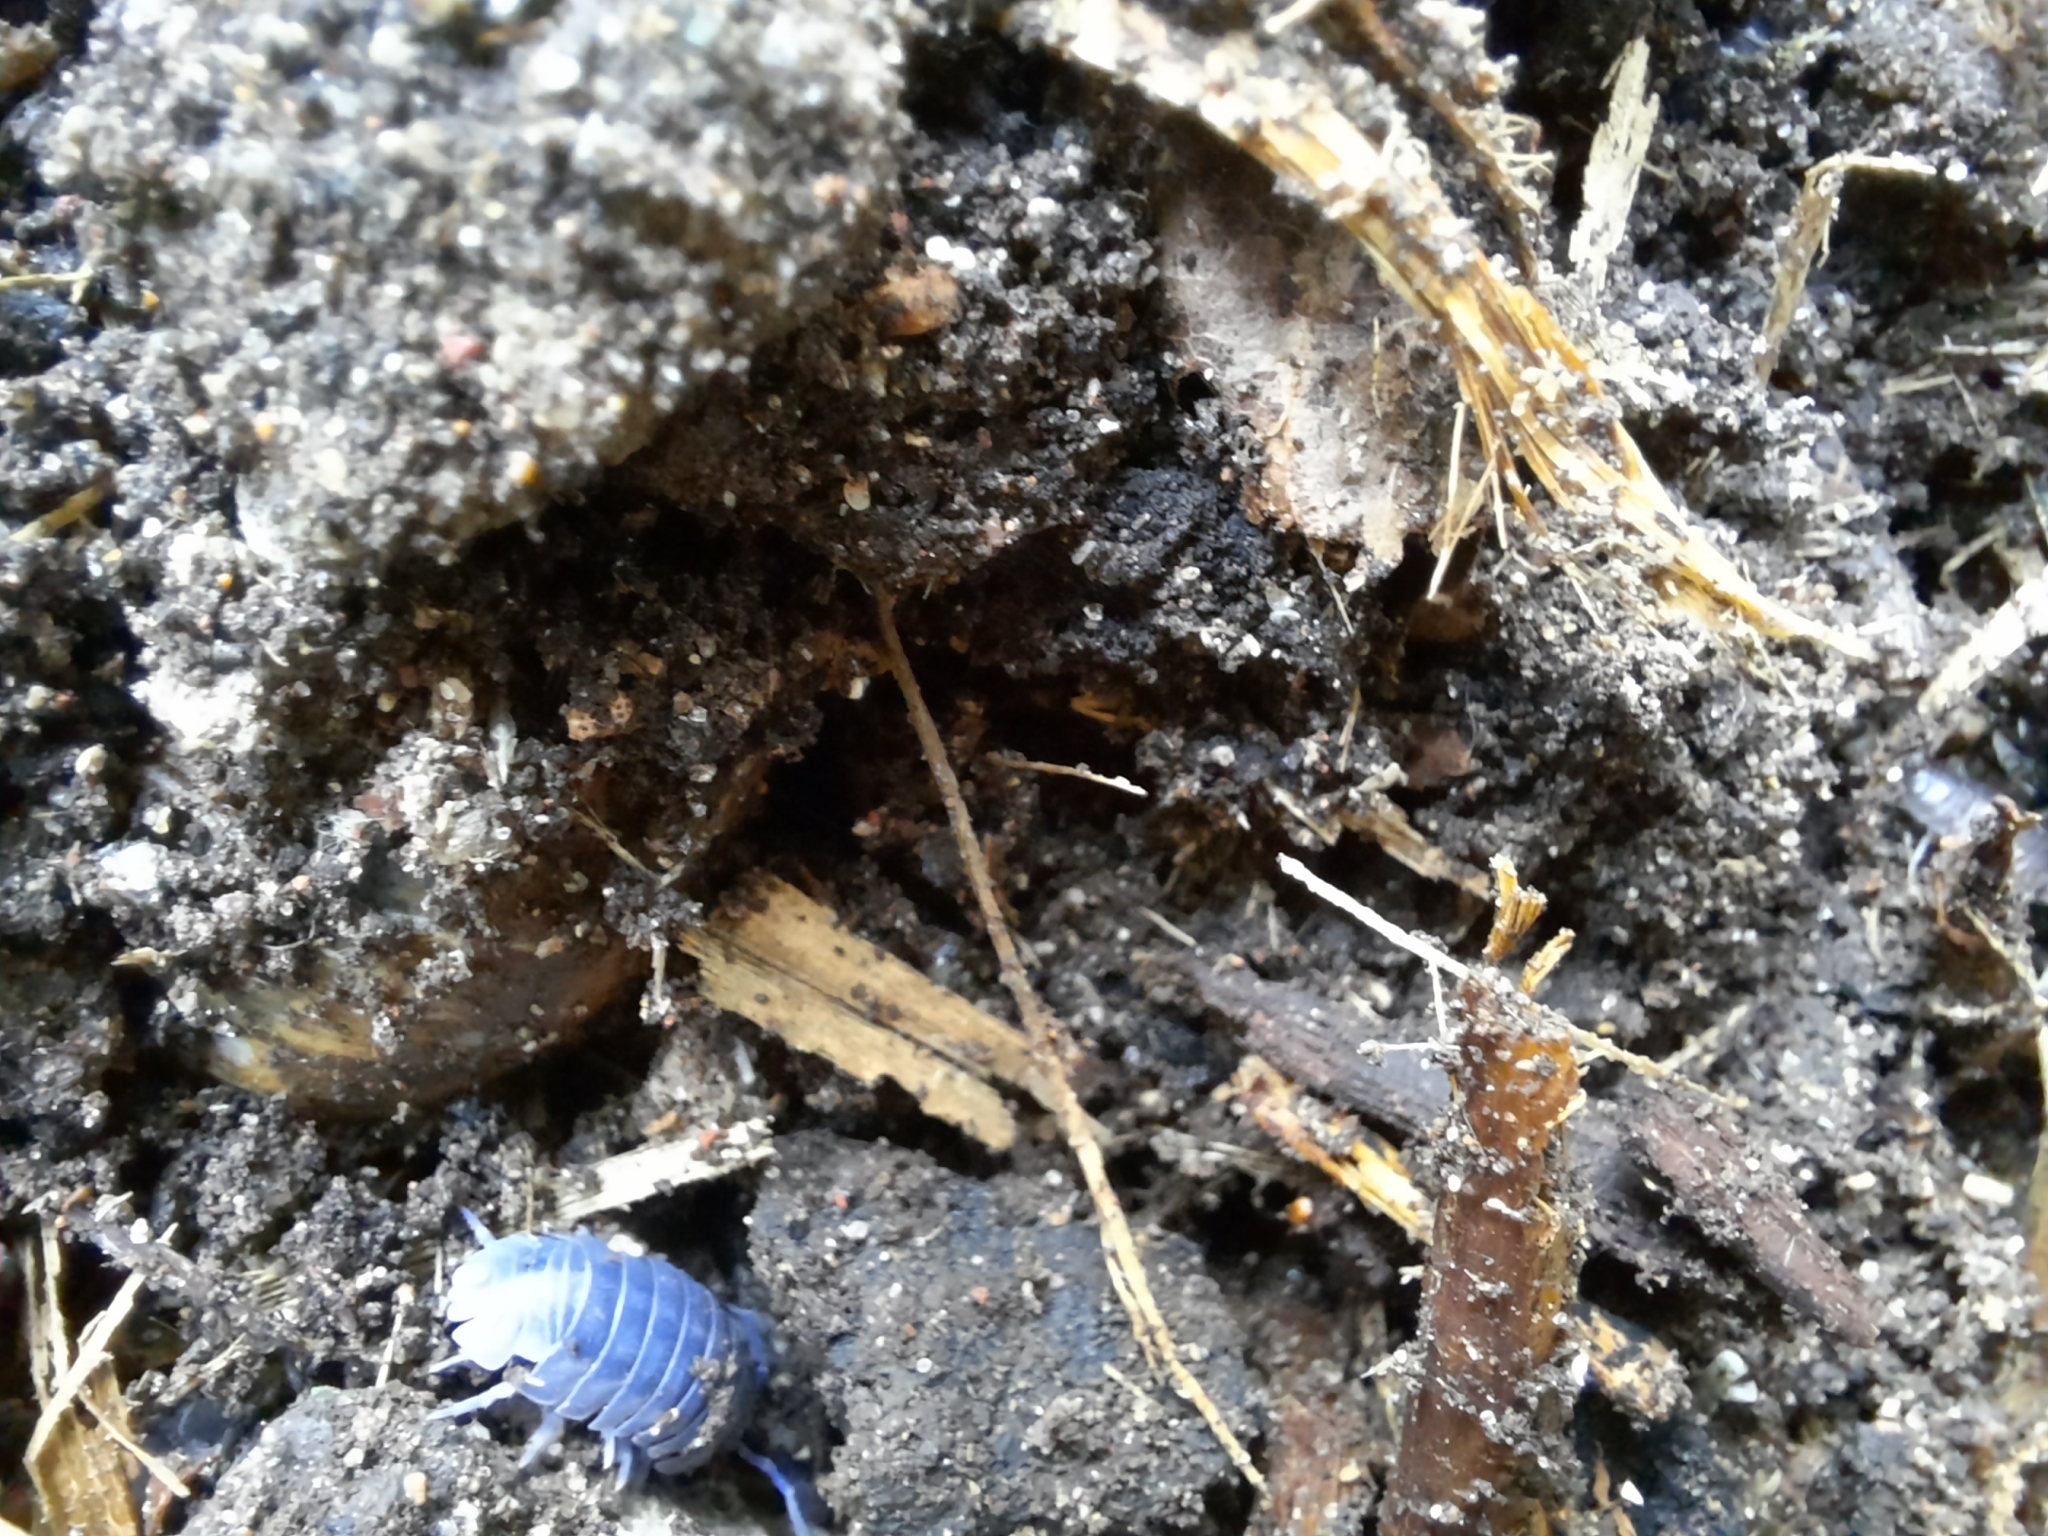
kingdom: Animalia
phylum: Arthropoda
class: Malacostraca
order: Isopoda
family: Armadillidiidae
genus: Armadillidium
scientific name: Armadillidium nasatum
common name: Isopod
